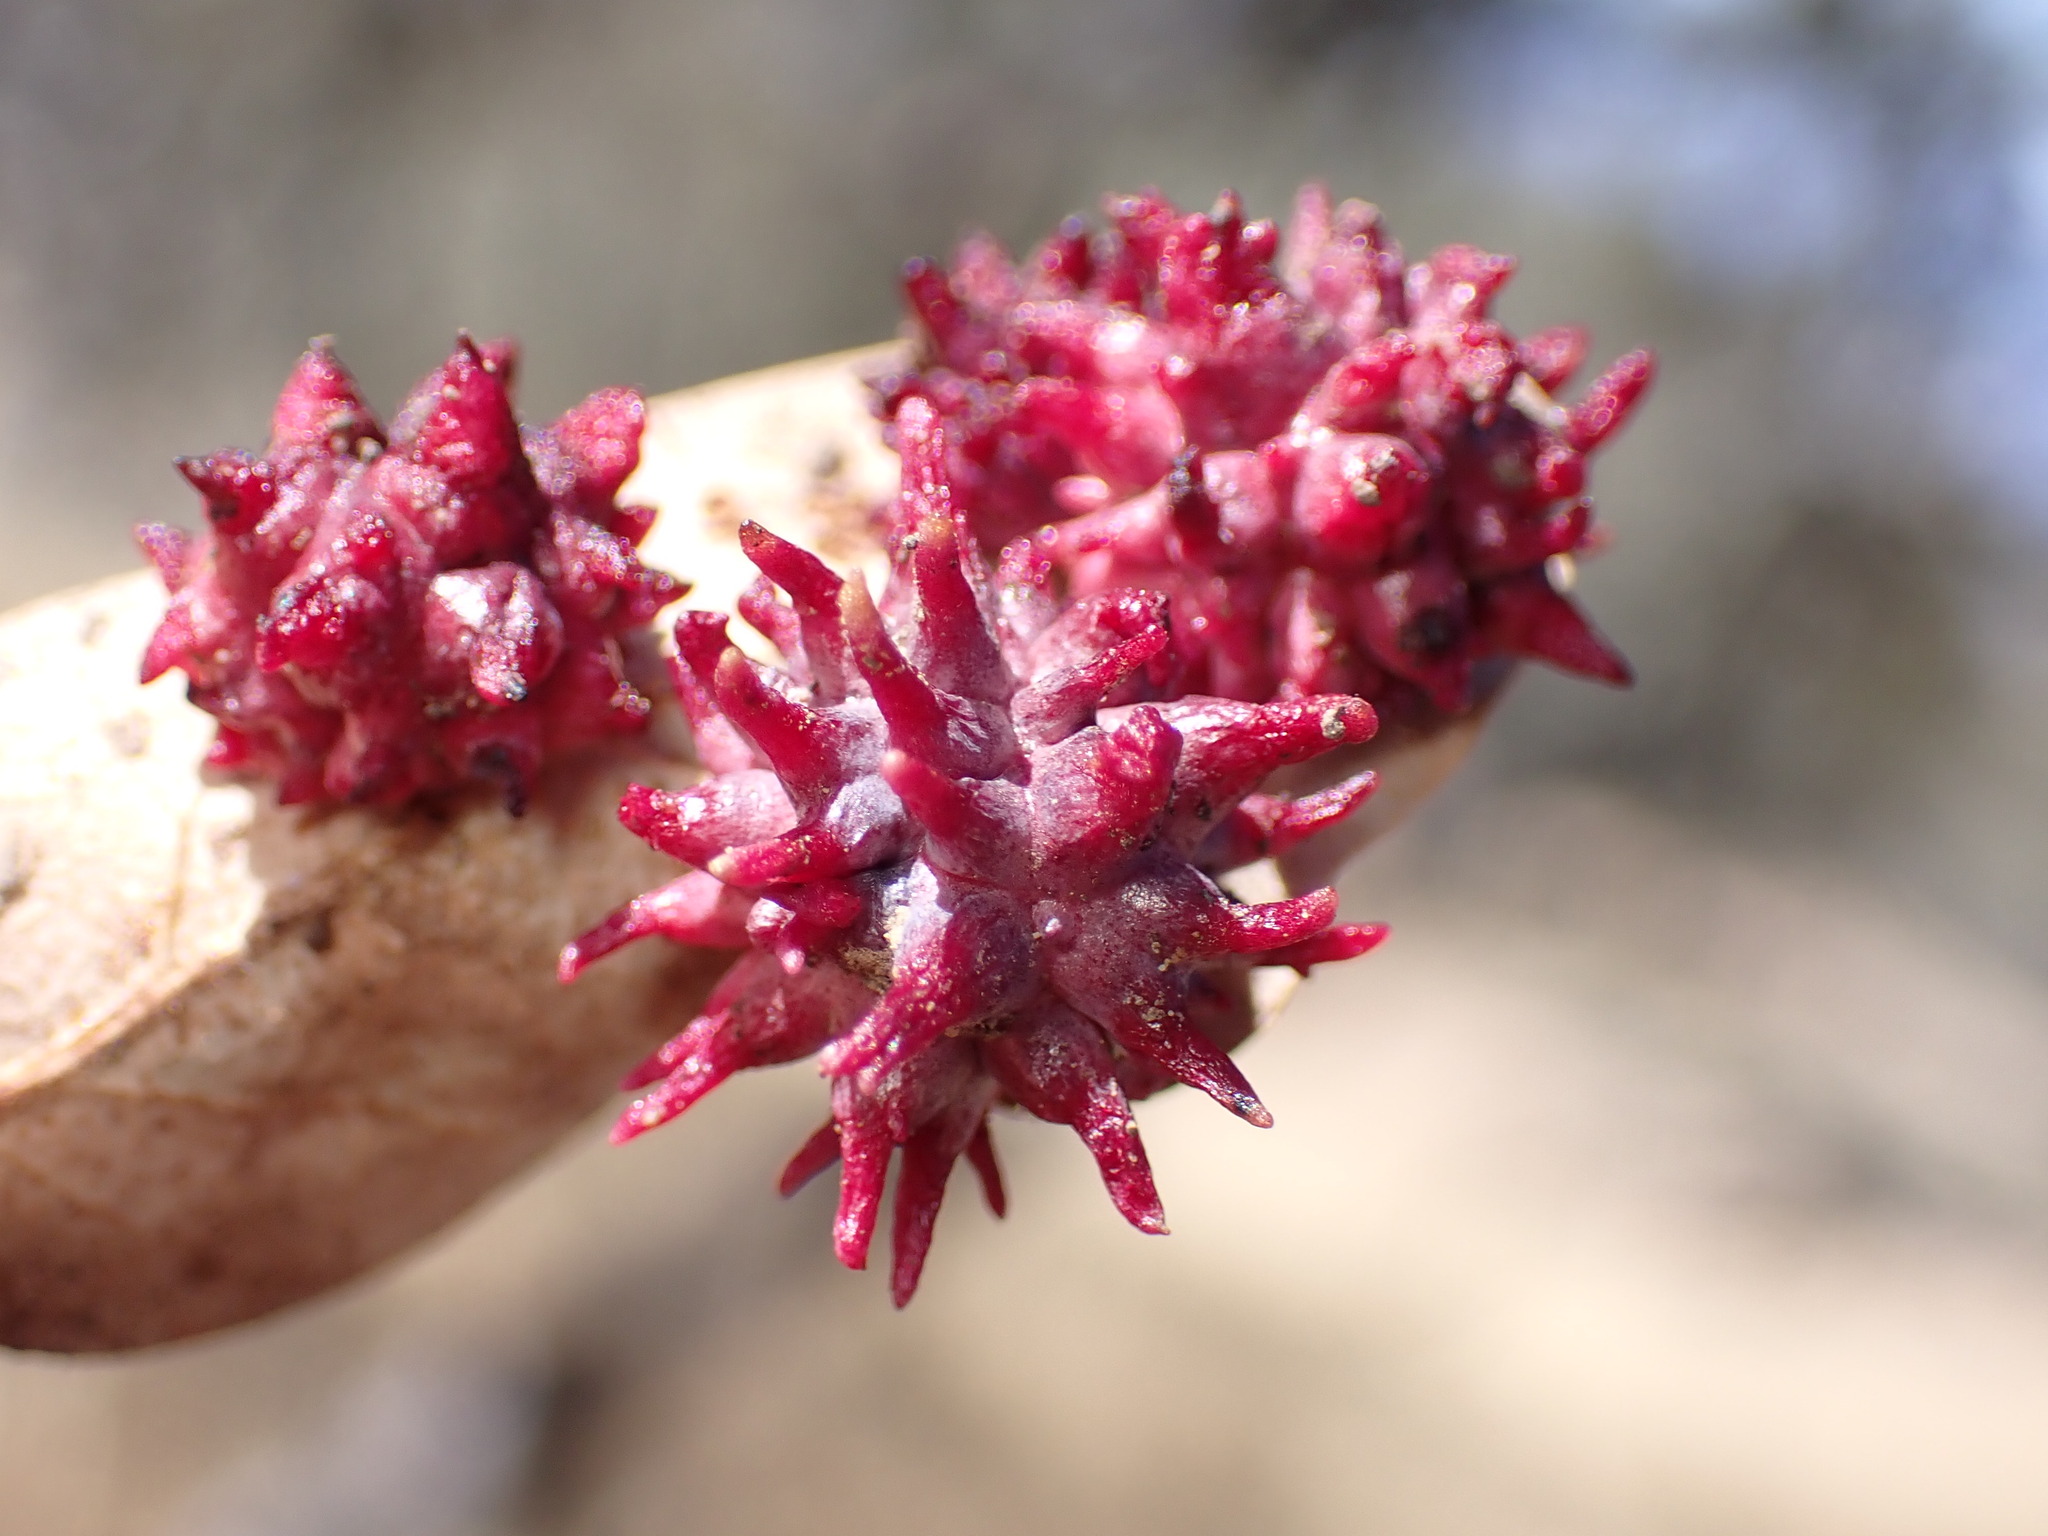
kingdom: Animalia
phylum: Arthropoda
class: Insecta
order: Hymenoptera
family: Cynipidae
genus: Cynips
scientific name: Cynips
